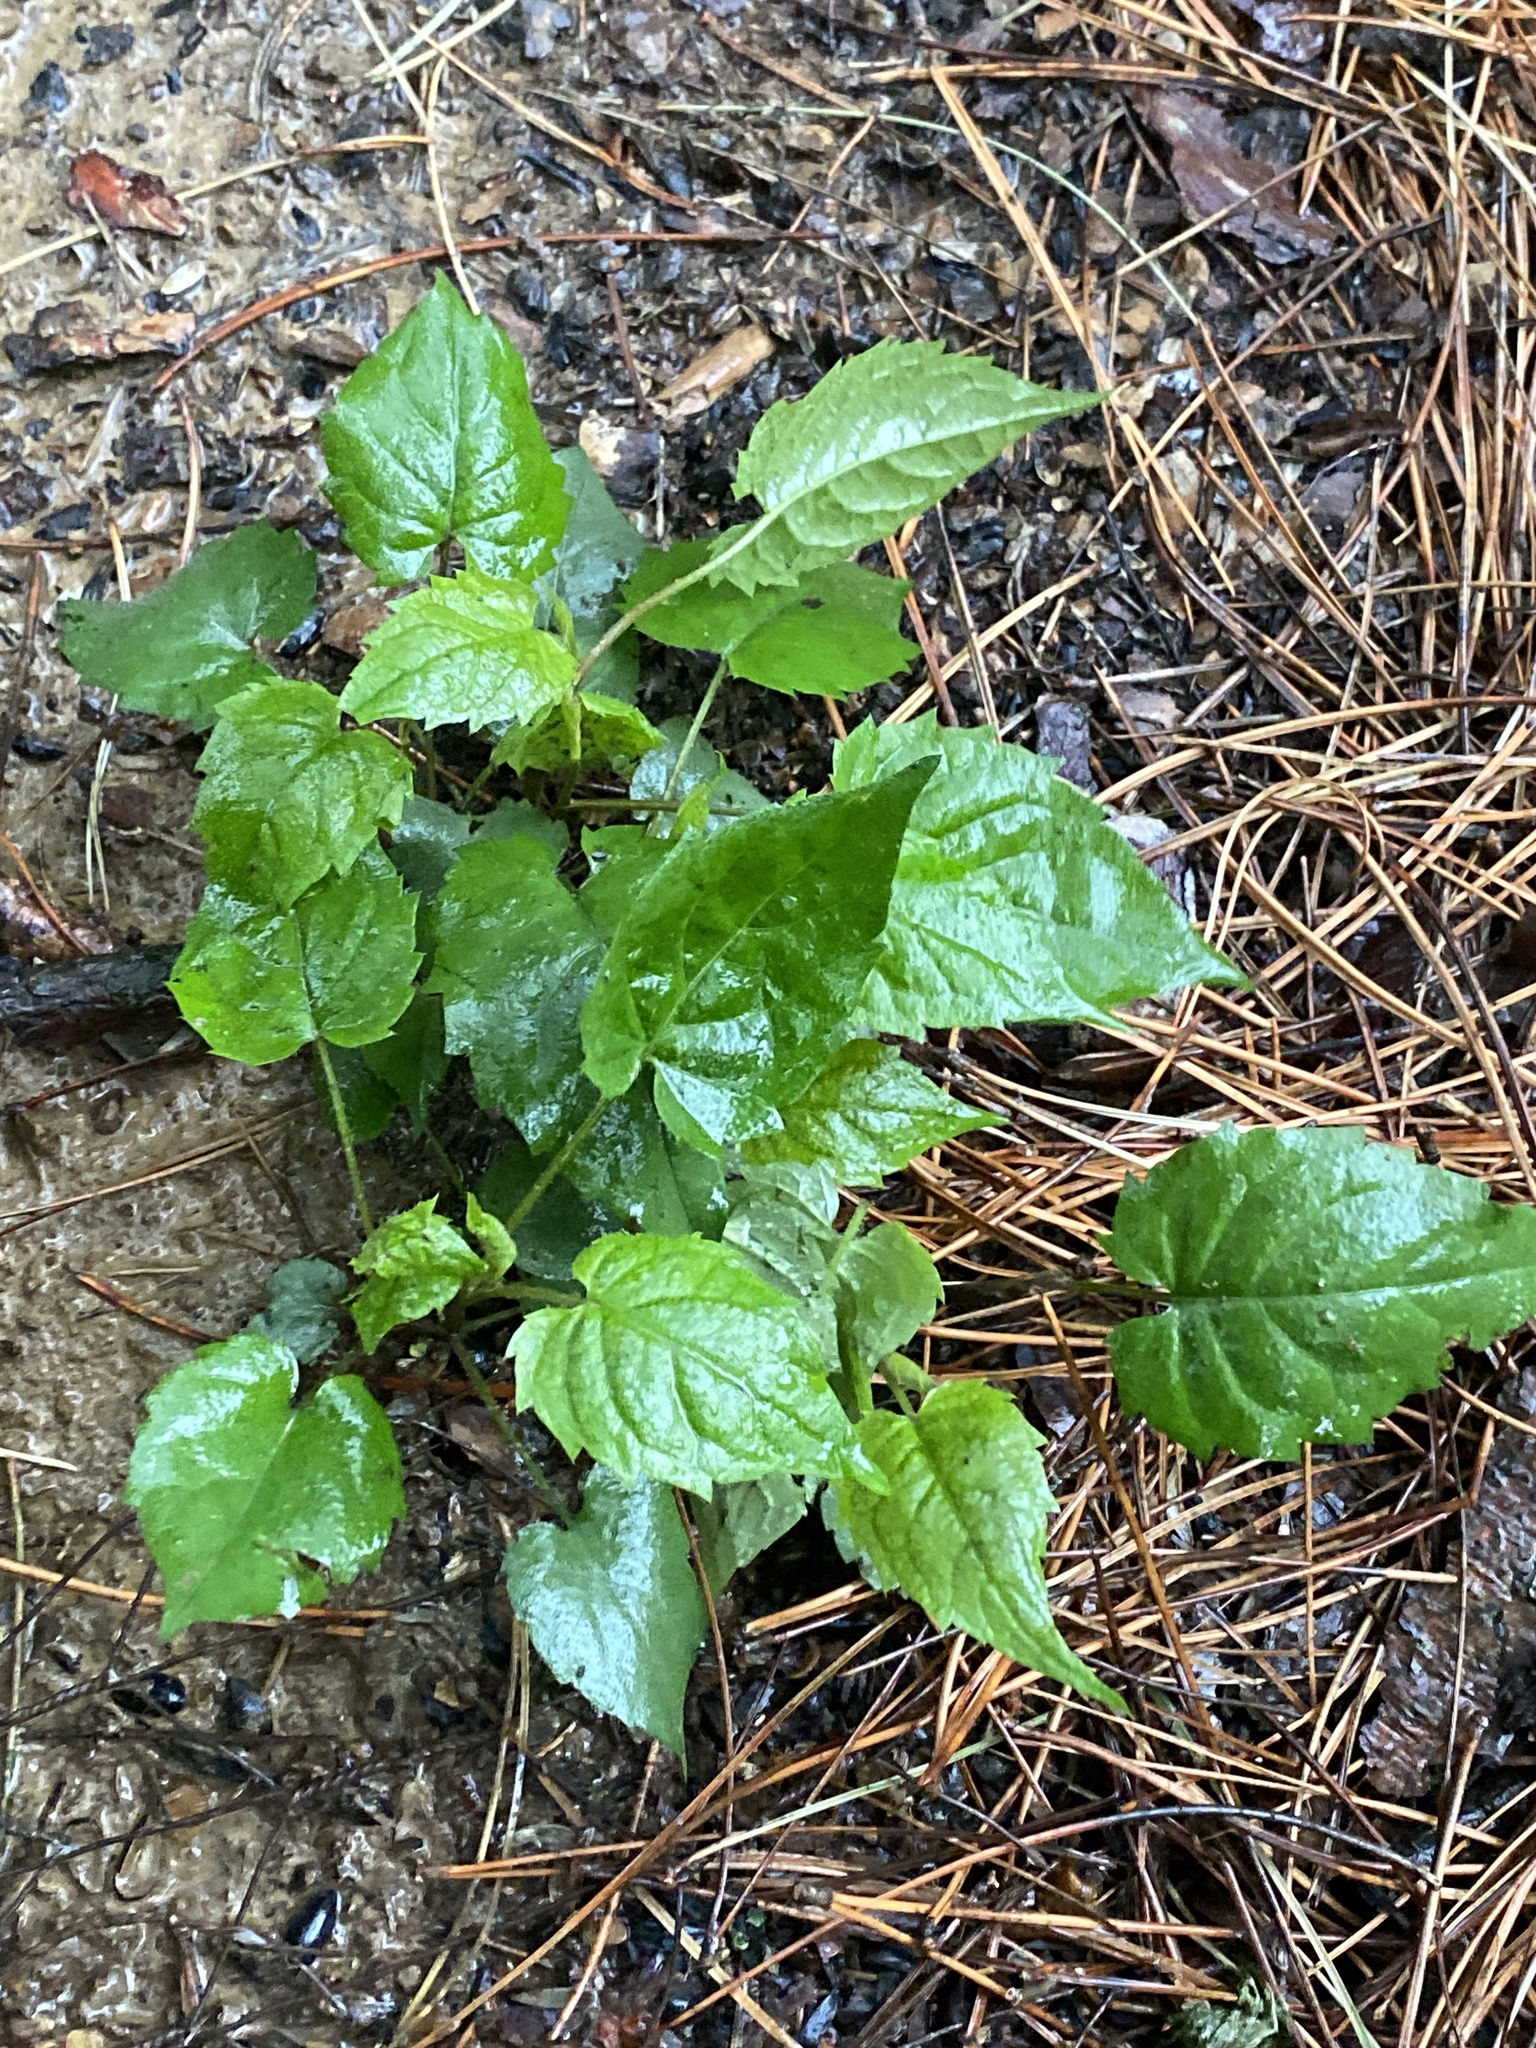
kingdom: Plantae
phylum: Tracheophyta
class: Magnoliopsida
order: Asterales
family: Asteraceae
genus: Eurybia
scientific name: Eurybia divaricata
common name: White wood aster
